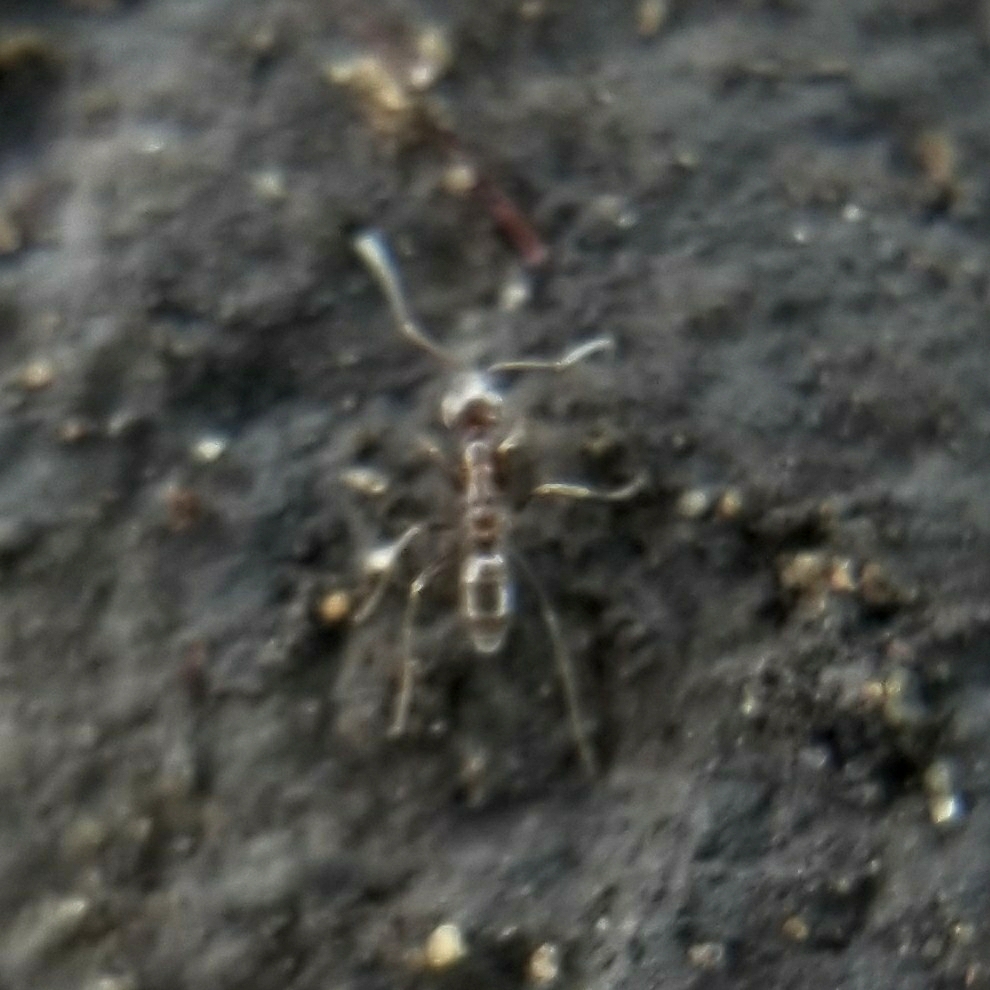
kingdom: Animalia
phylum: Arthropoda
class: Insecta
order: Hymenoptera
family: Formicidae
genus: Linepithema
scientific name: Linepithema humile
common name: Argentine ant
